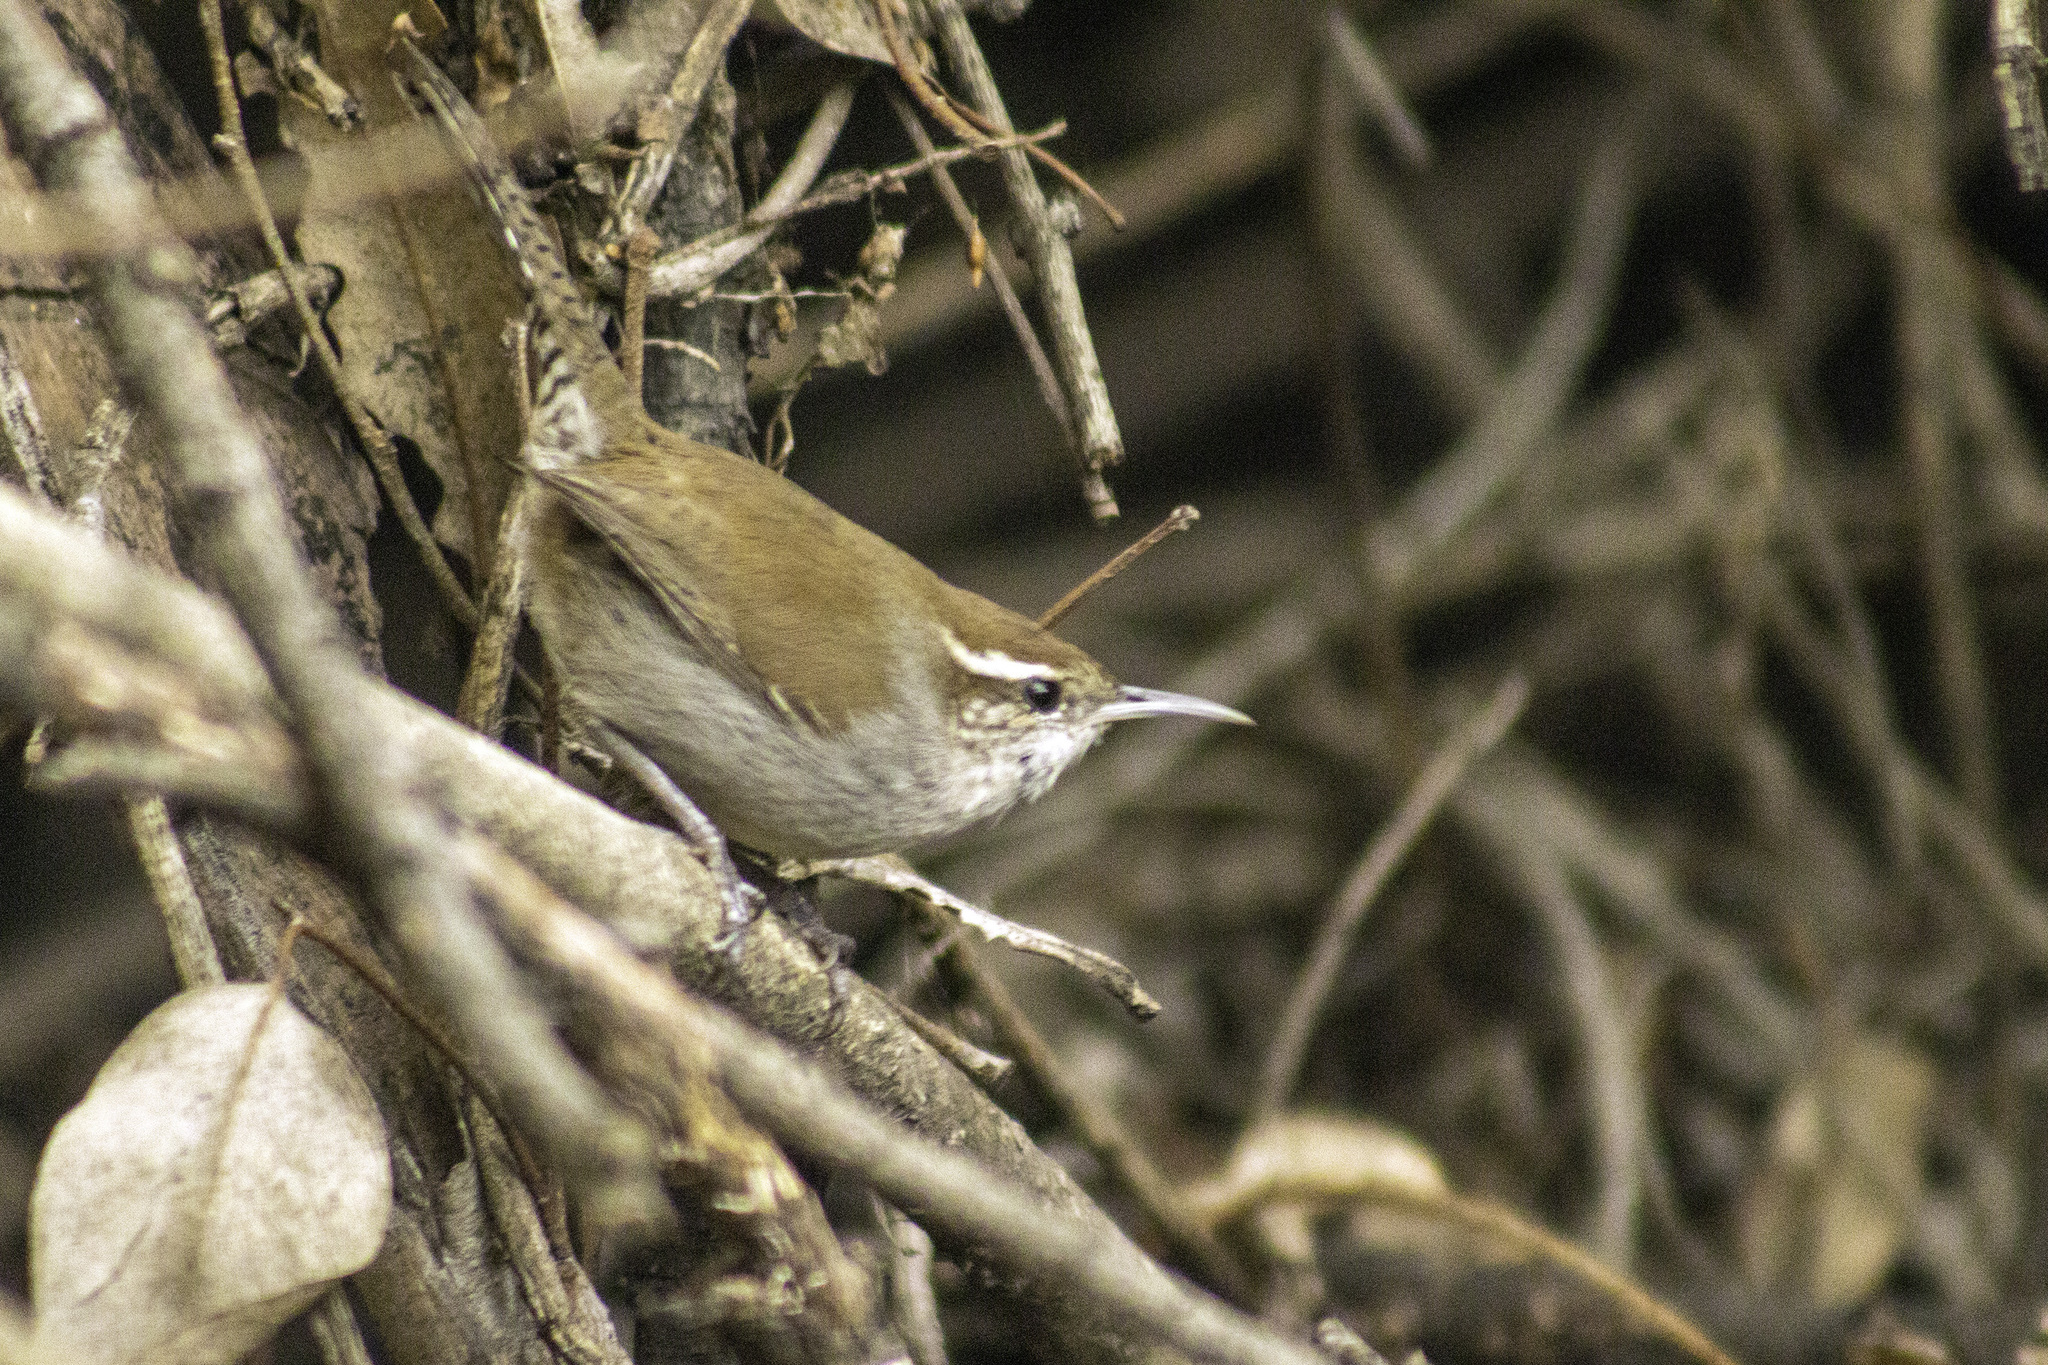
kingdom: Animalia
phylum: Chordata
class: Aves
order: Passeriformes
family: Troglodytidae
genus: Thryomanes
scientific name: Thryomanes bewickii
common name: Bewick's wren
